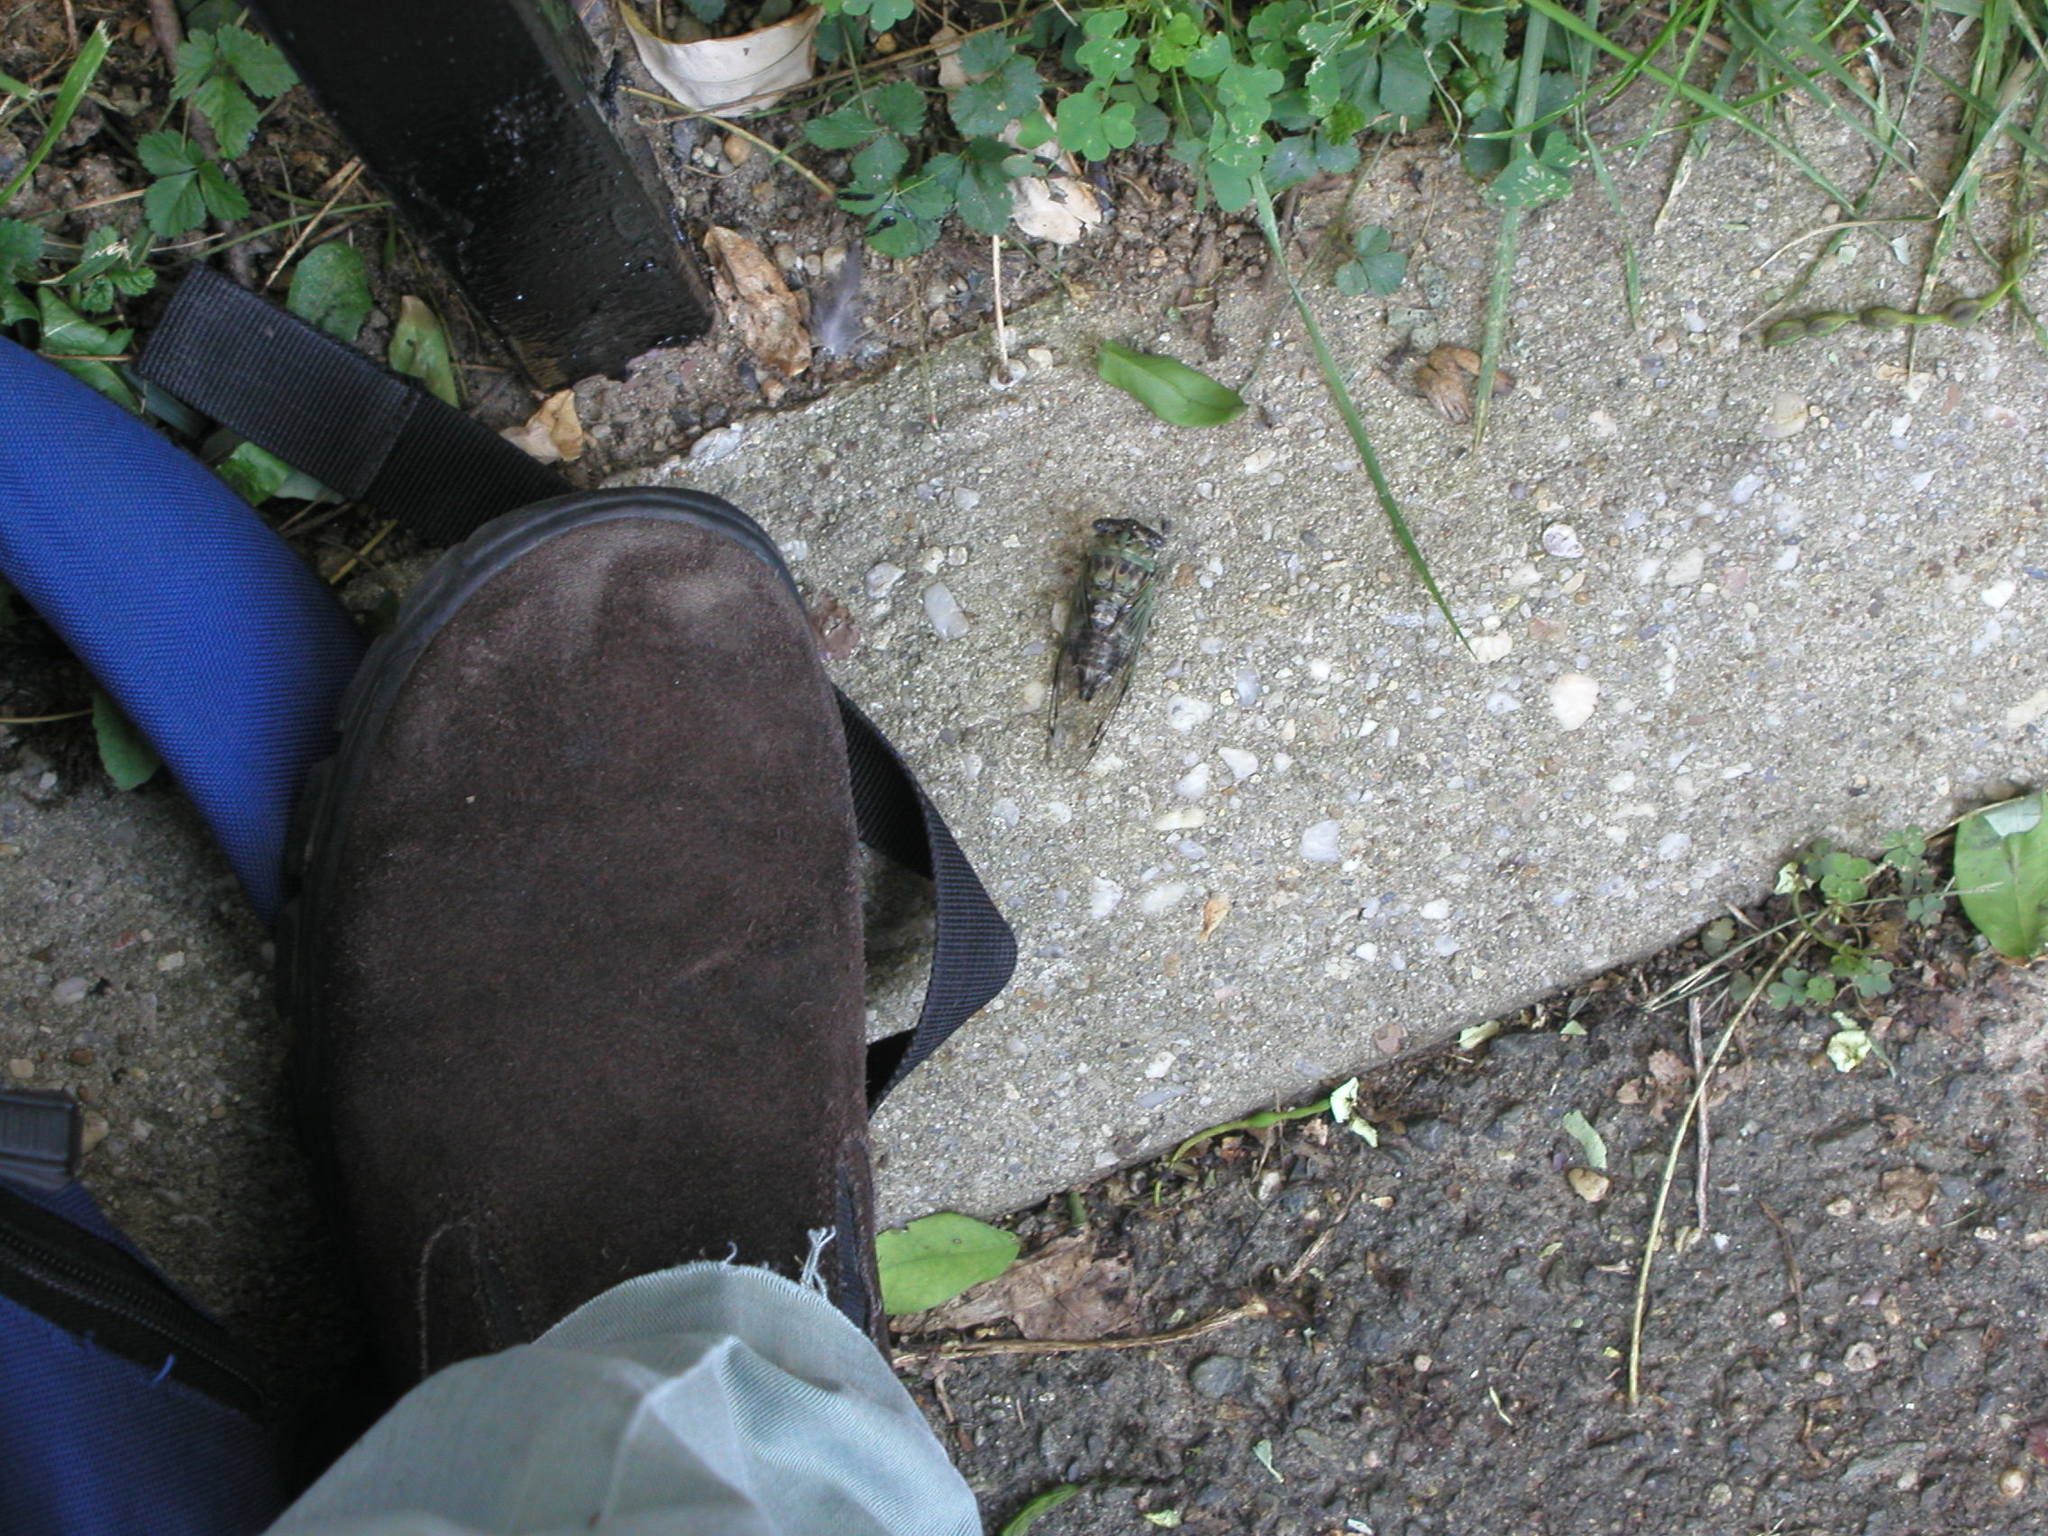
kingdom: Animalia
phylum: Arthropoda
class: Insecta
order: Hemiptera
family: Cicadidae
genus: Neotibicen
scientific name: Neotibicen winnemanna
